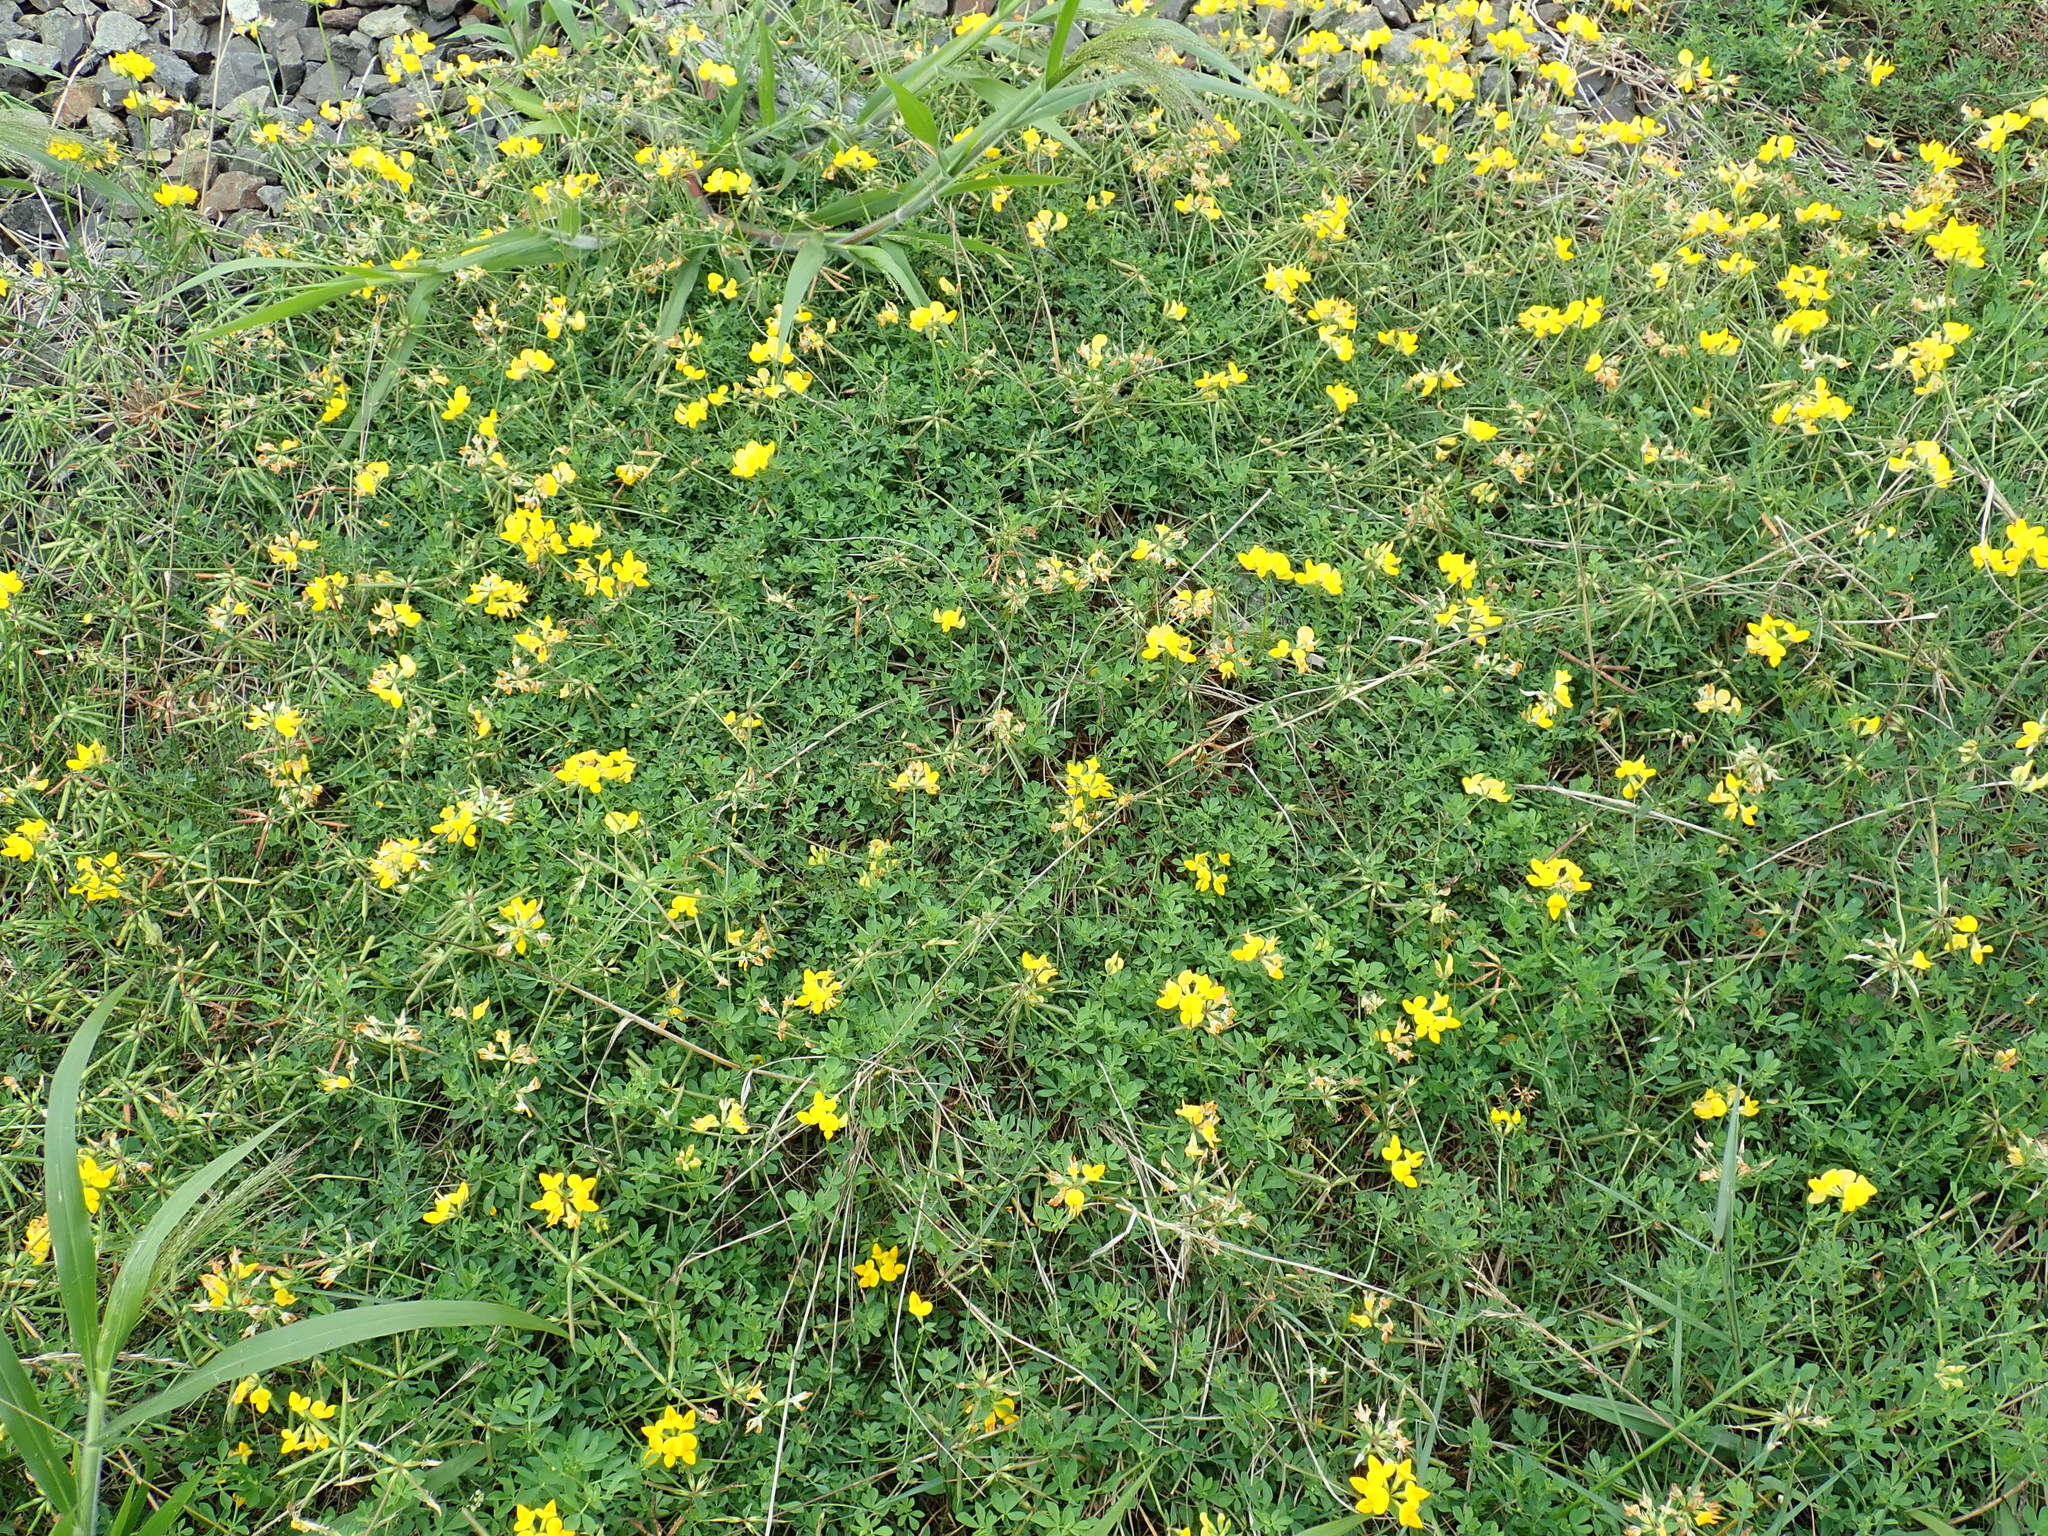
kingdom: Plantae
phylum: Tracheophyta
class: Magnoliopsida
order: Fabales
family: Fabaceae
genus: Lotus
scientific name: Lotus corniculatus
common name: Common bird's-foot-trefoil
